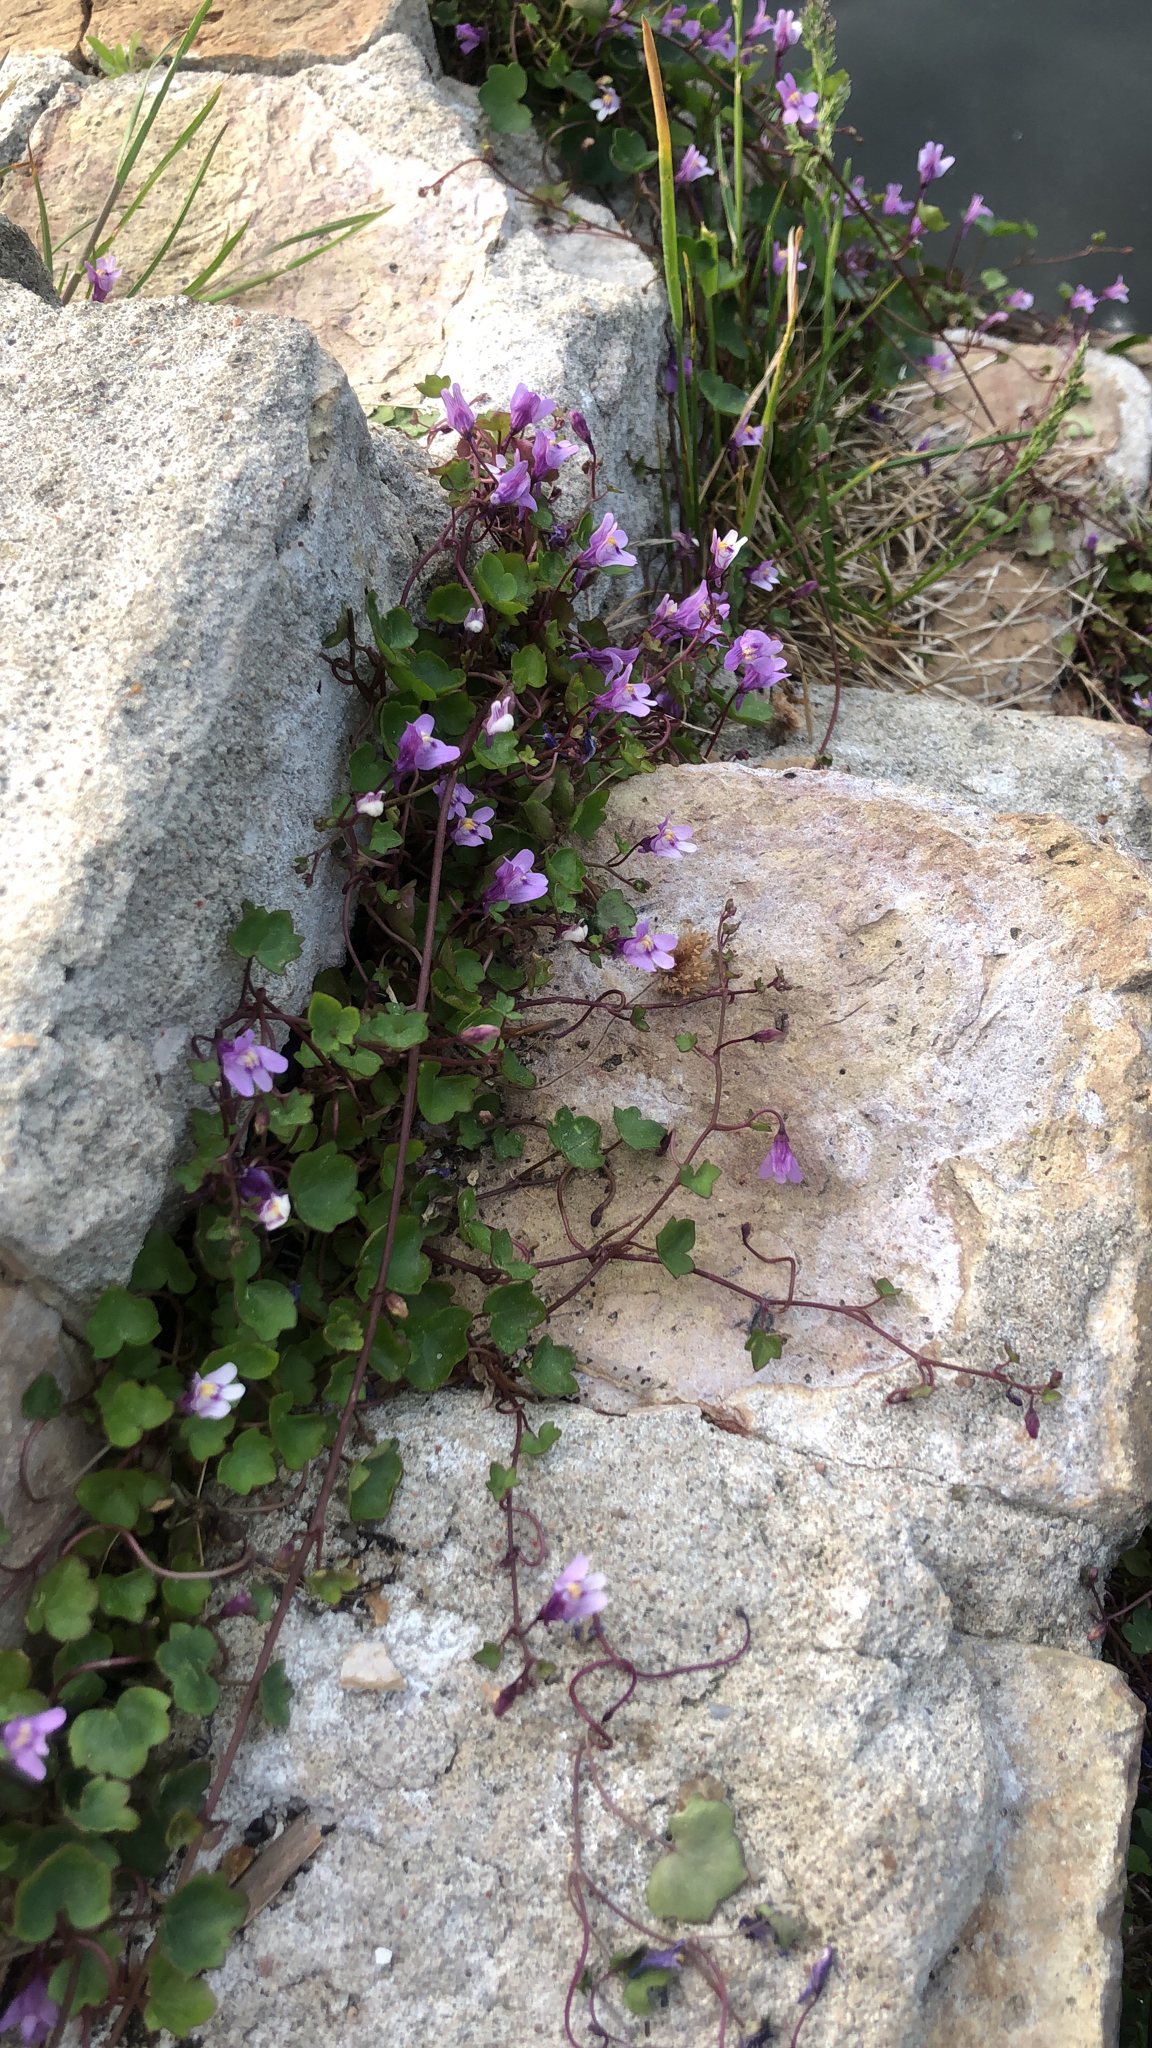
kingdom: Plantae
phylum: Tracheophyta
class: Magnoliopsida
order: Lamiales
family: Plantaginaceae
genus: Cymbalaria
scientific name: Cymbalaria muralis
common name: Ivy-leaved toadflax
